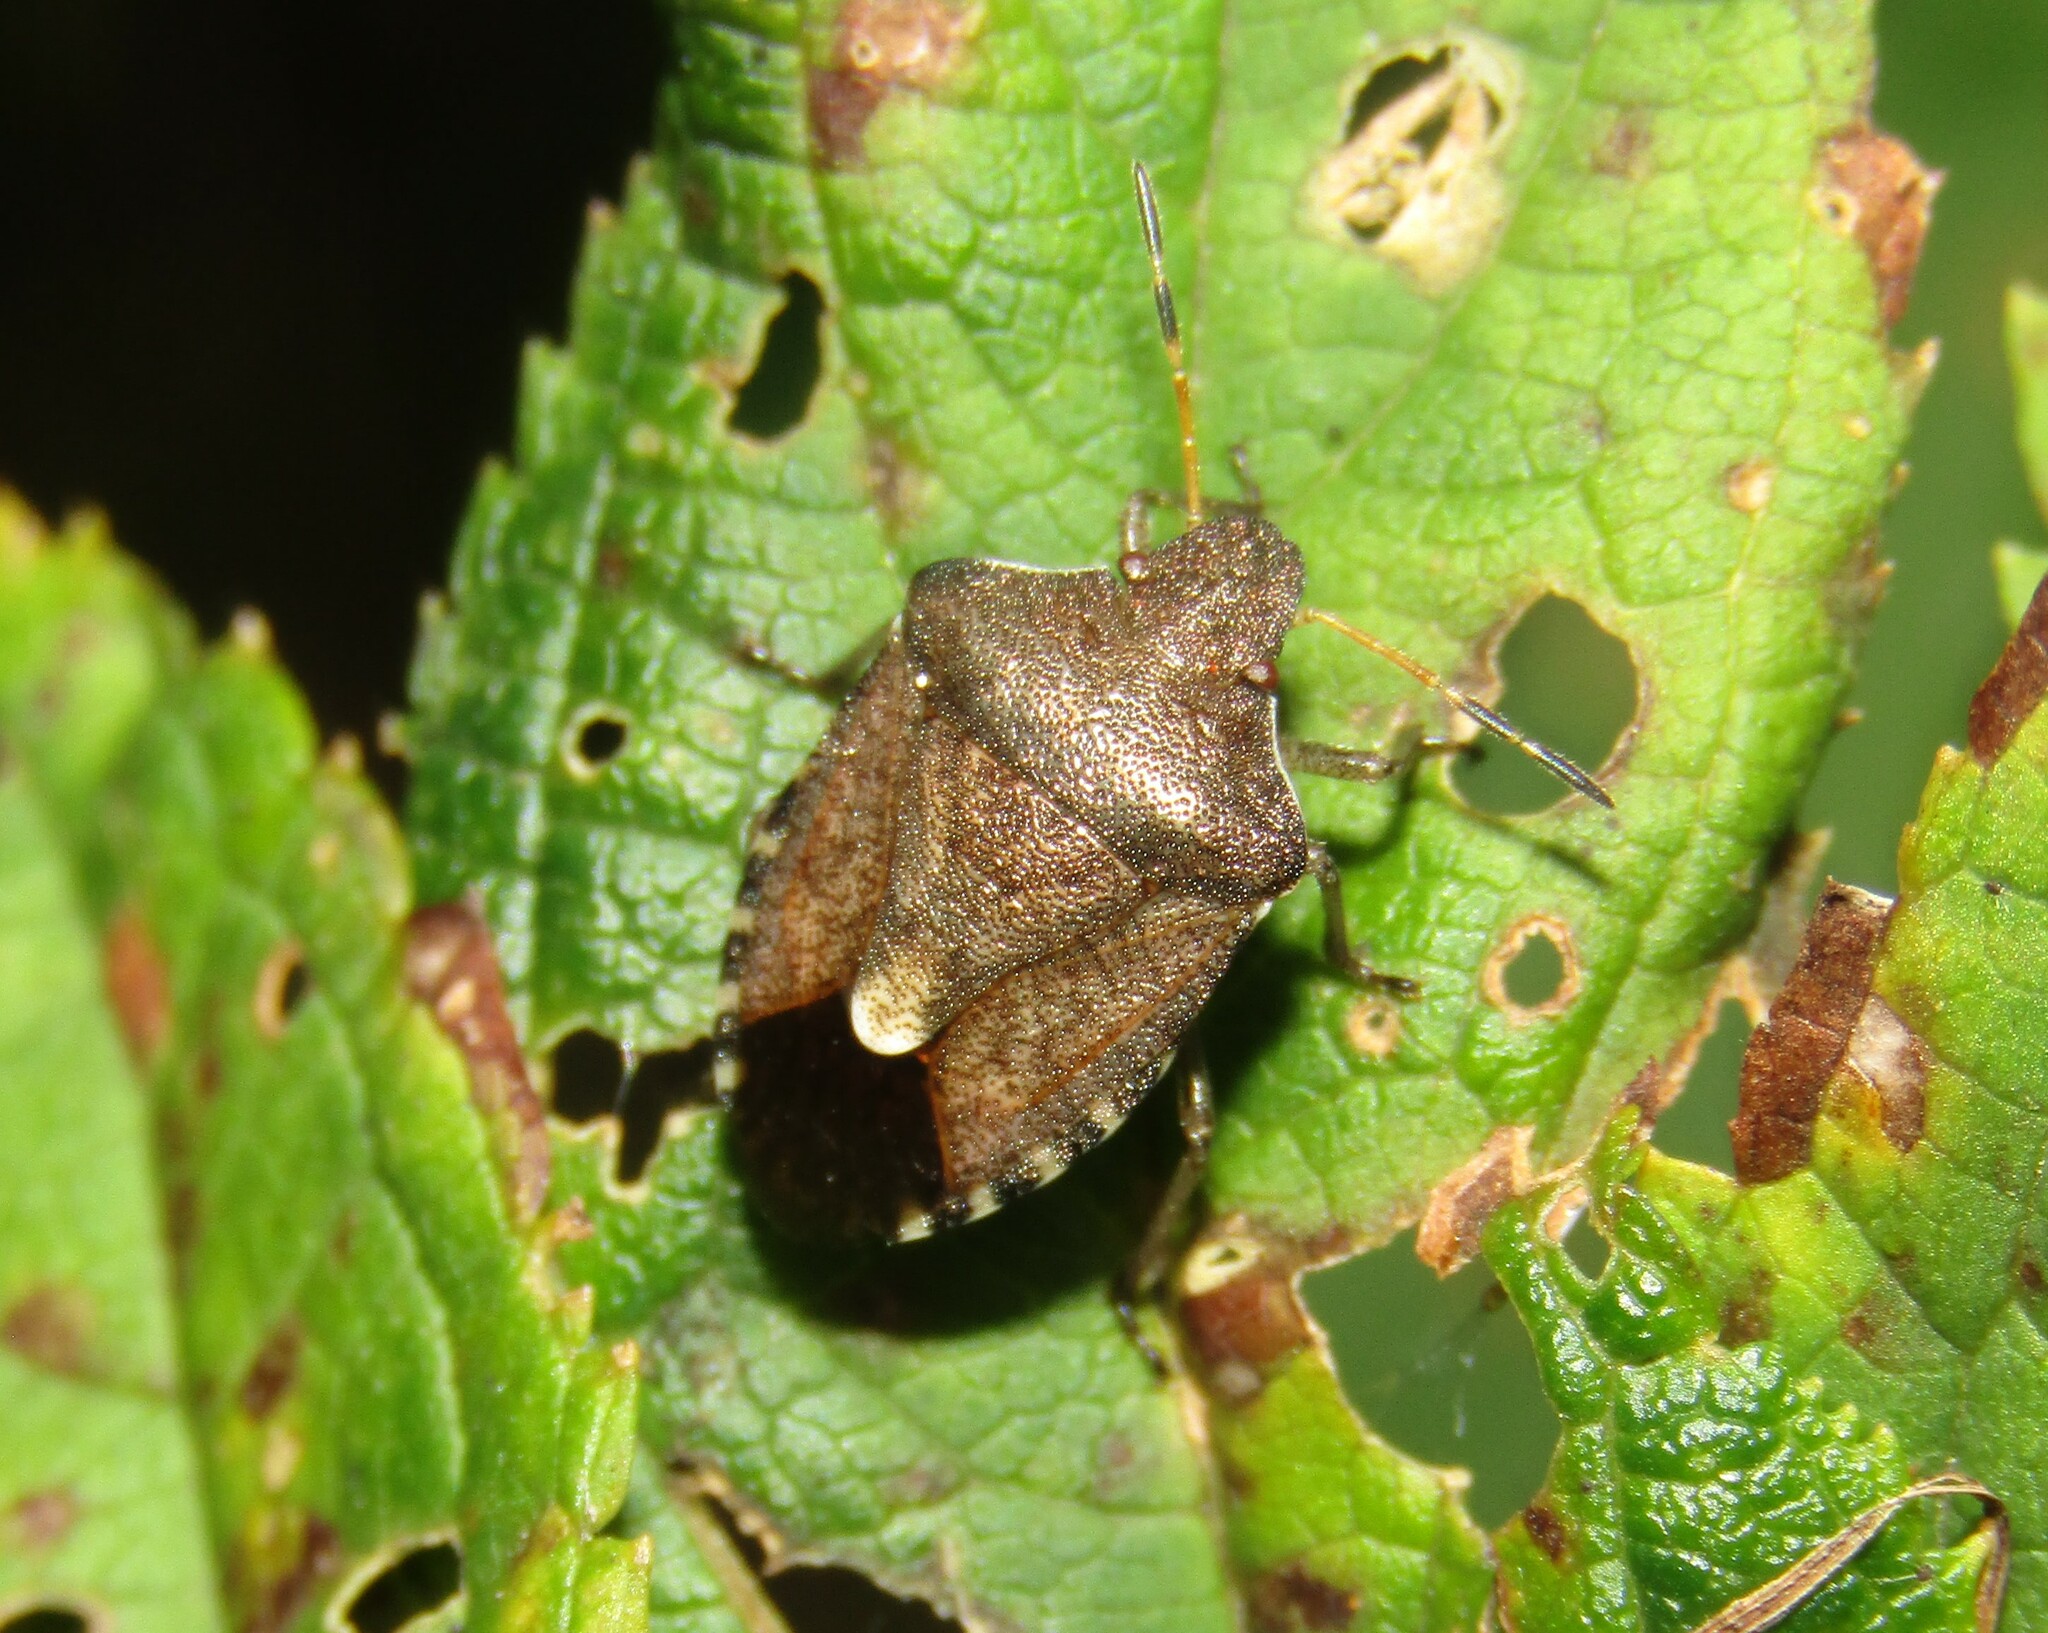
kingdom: Animalia
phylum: Arthropoda
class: Insecta
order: Hemiptera
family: Pentatomidae
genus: Holcostethus
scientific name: Holcostethus strictus
